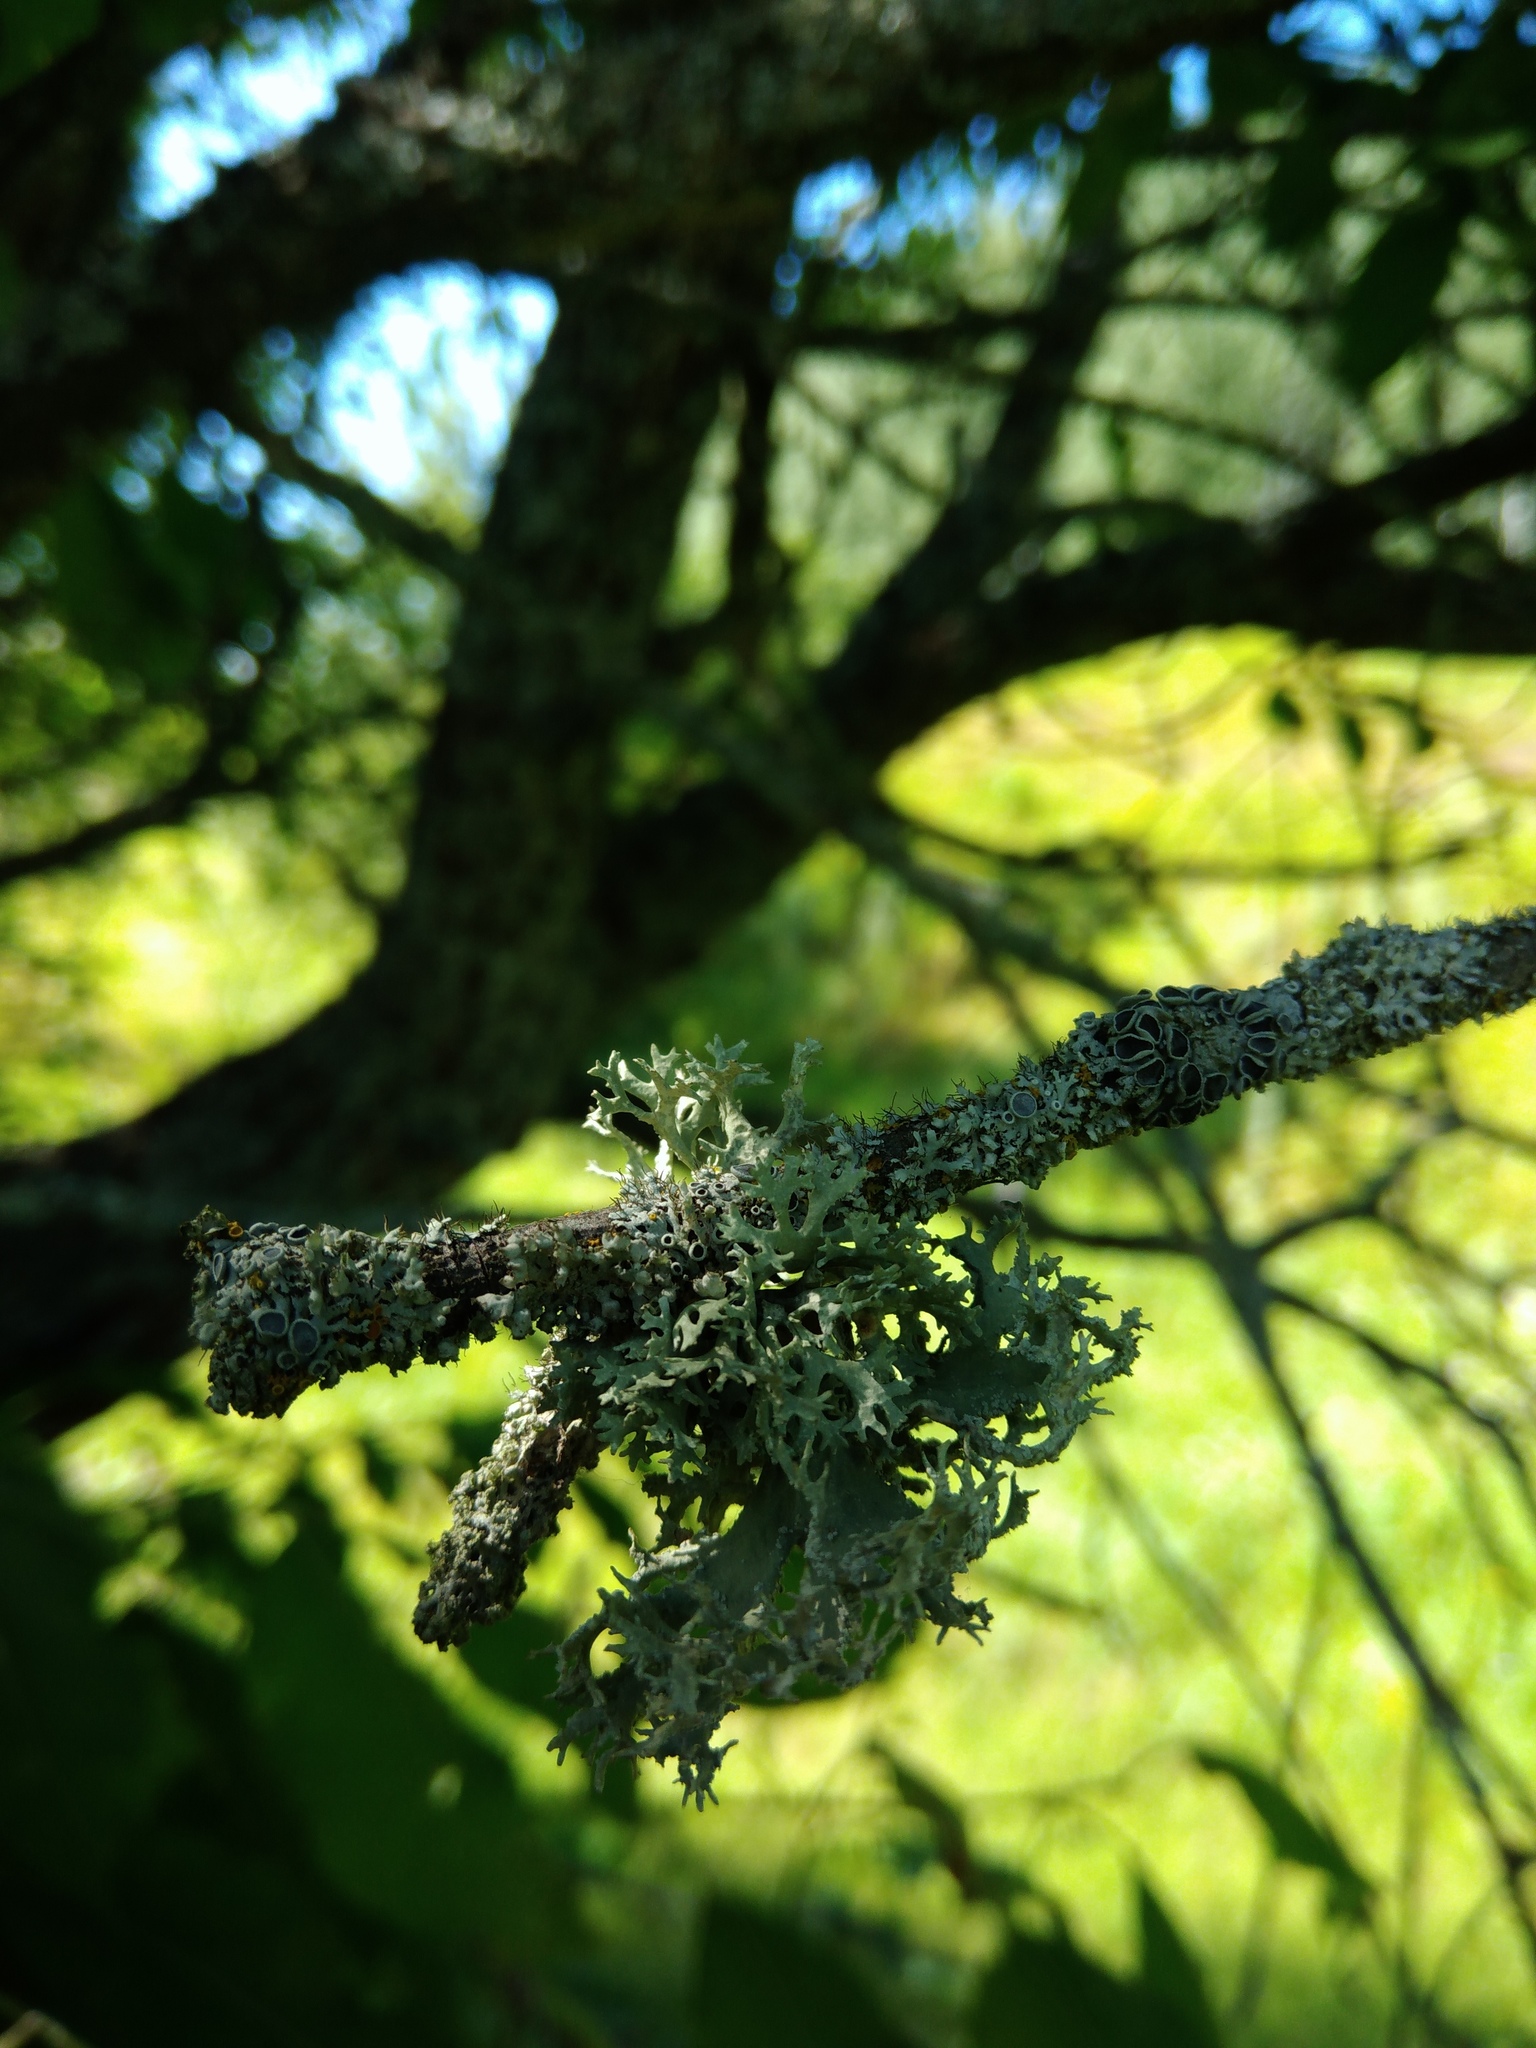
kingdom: Fungi
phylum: Ascomycota
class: Lecanoromycetes
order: Lecanorales
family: Parmeliaceae
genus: Evernia
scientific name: Evernia prunastri
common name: Oak moss
